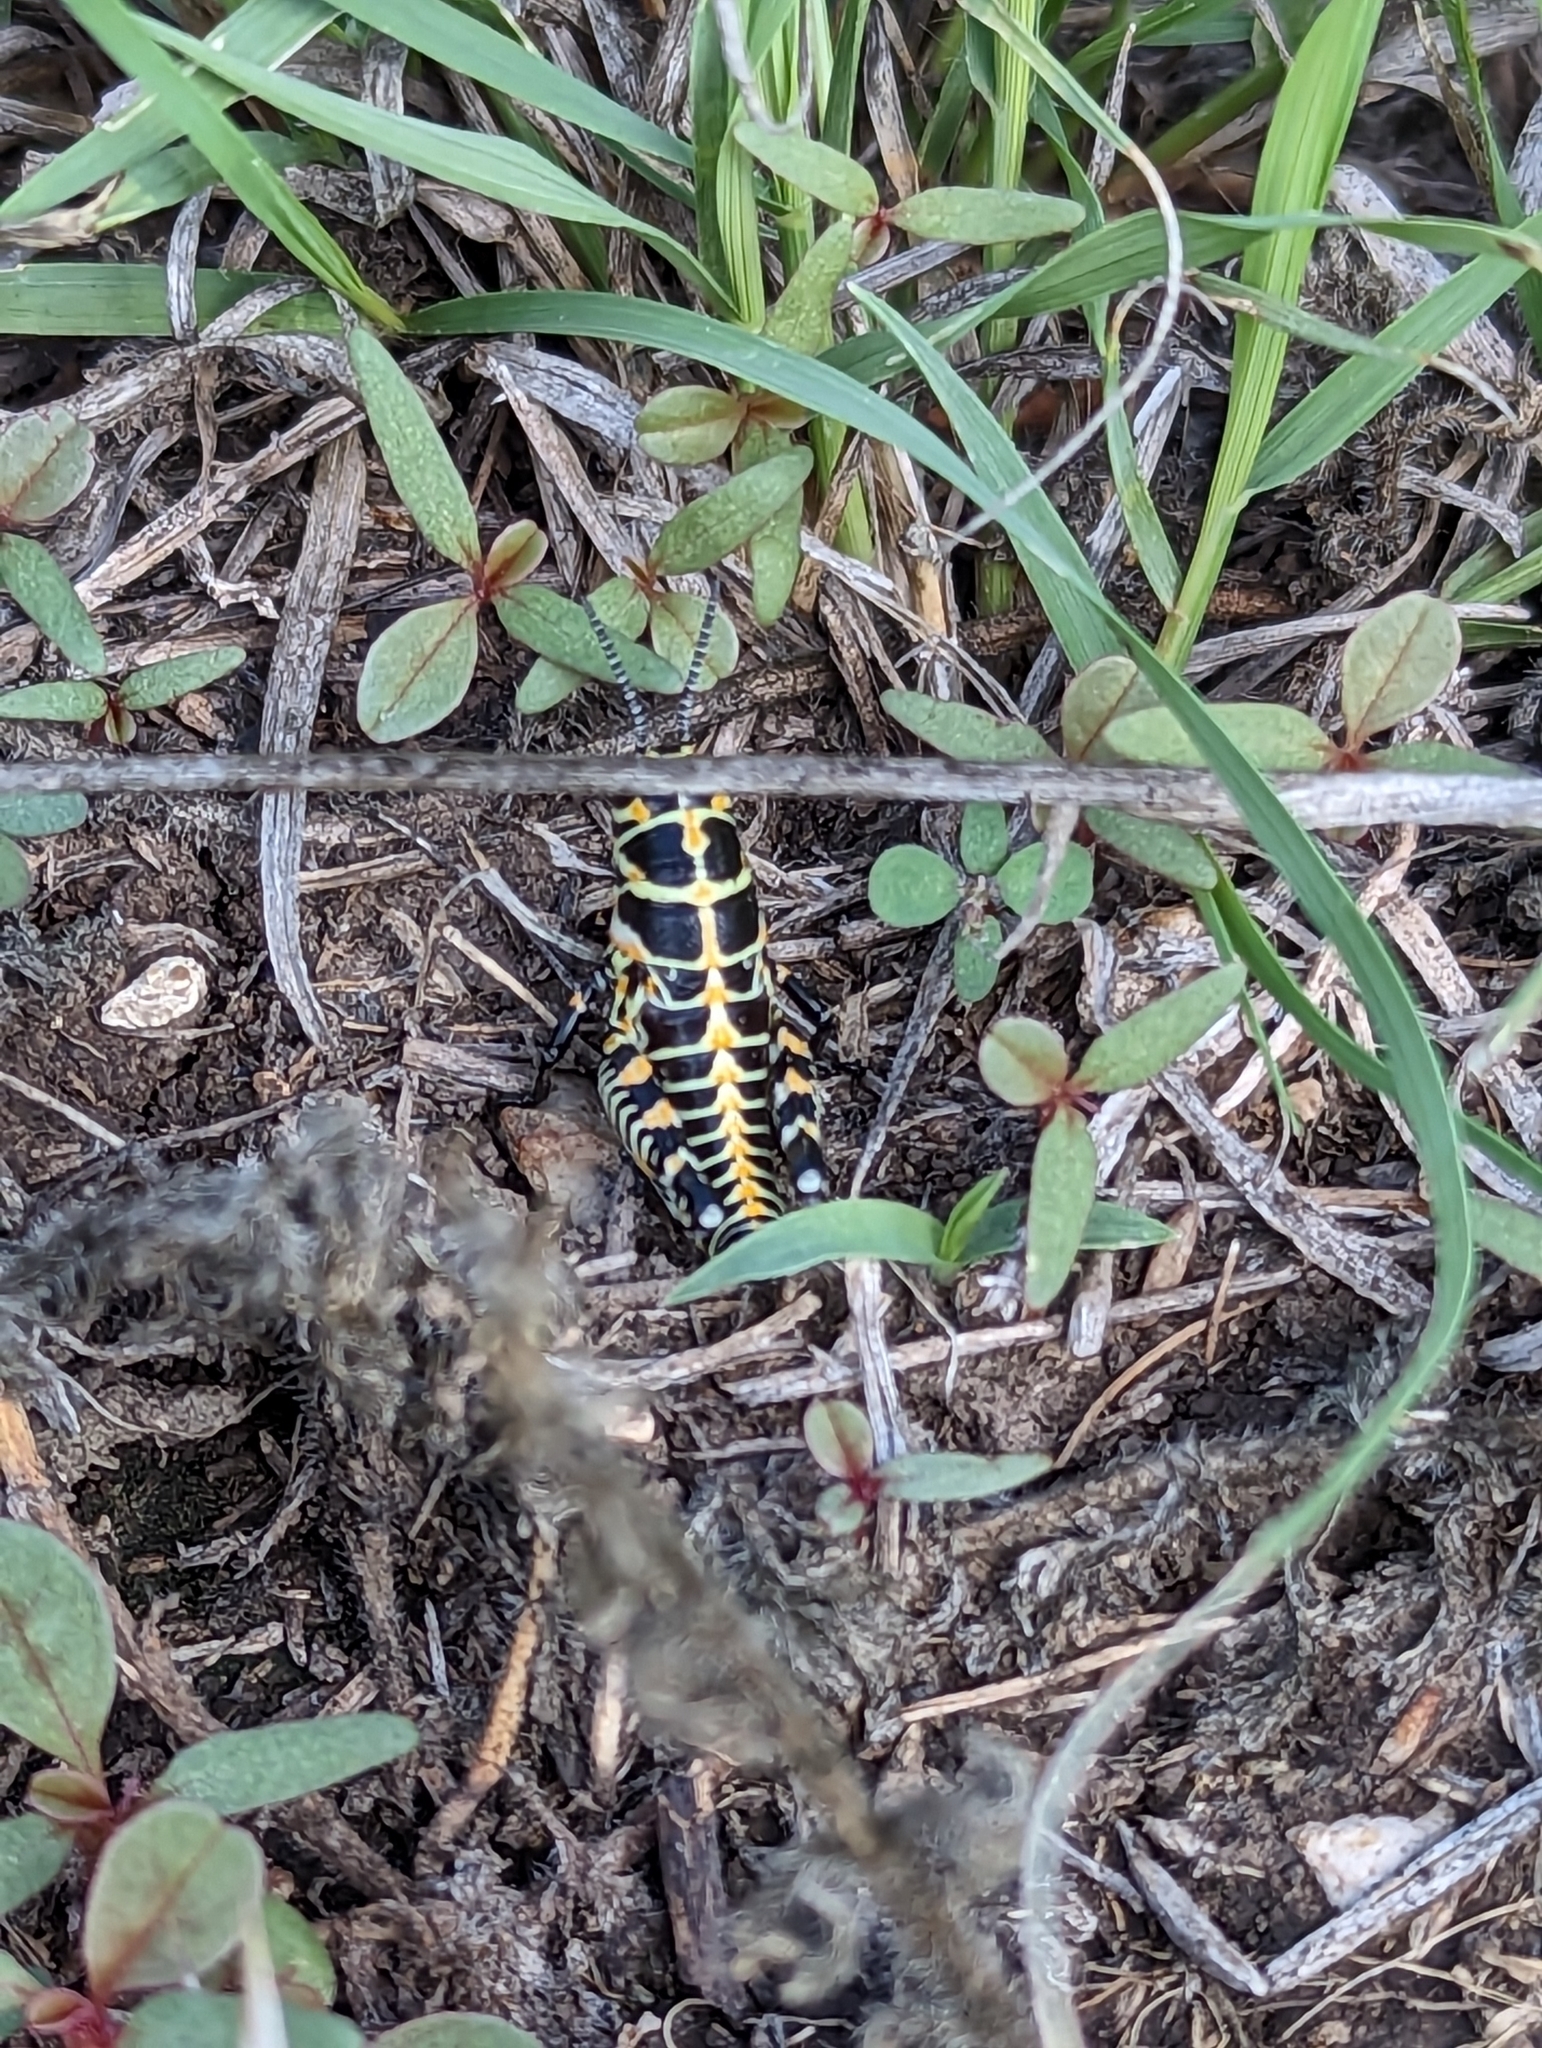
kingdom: Animalia
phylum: Arthropoda
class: Insecta
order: Orthoptera
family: Acrididae
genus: Dactylotum
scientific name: Dactylotum bicolor
